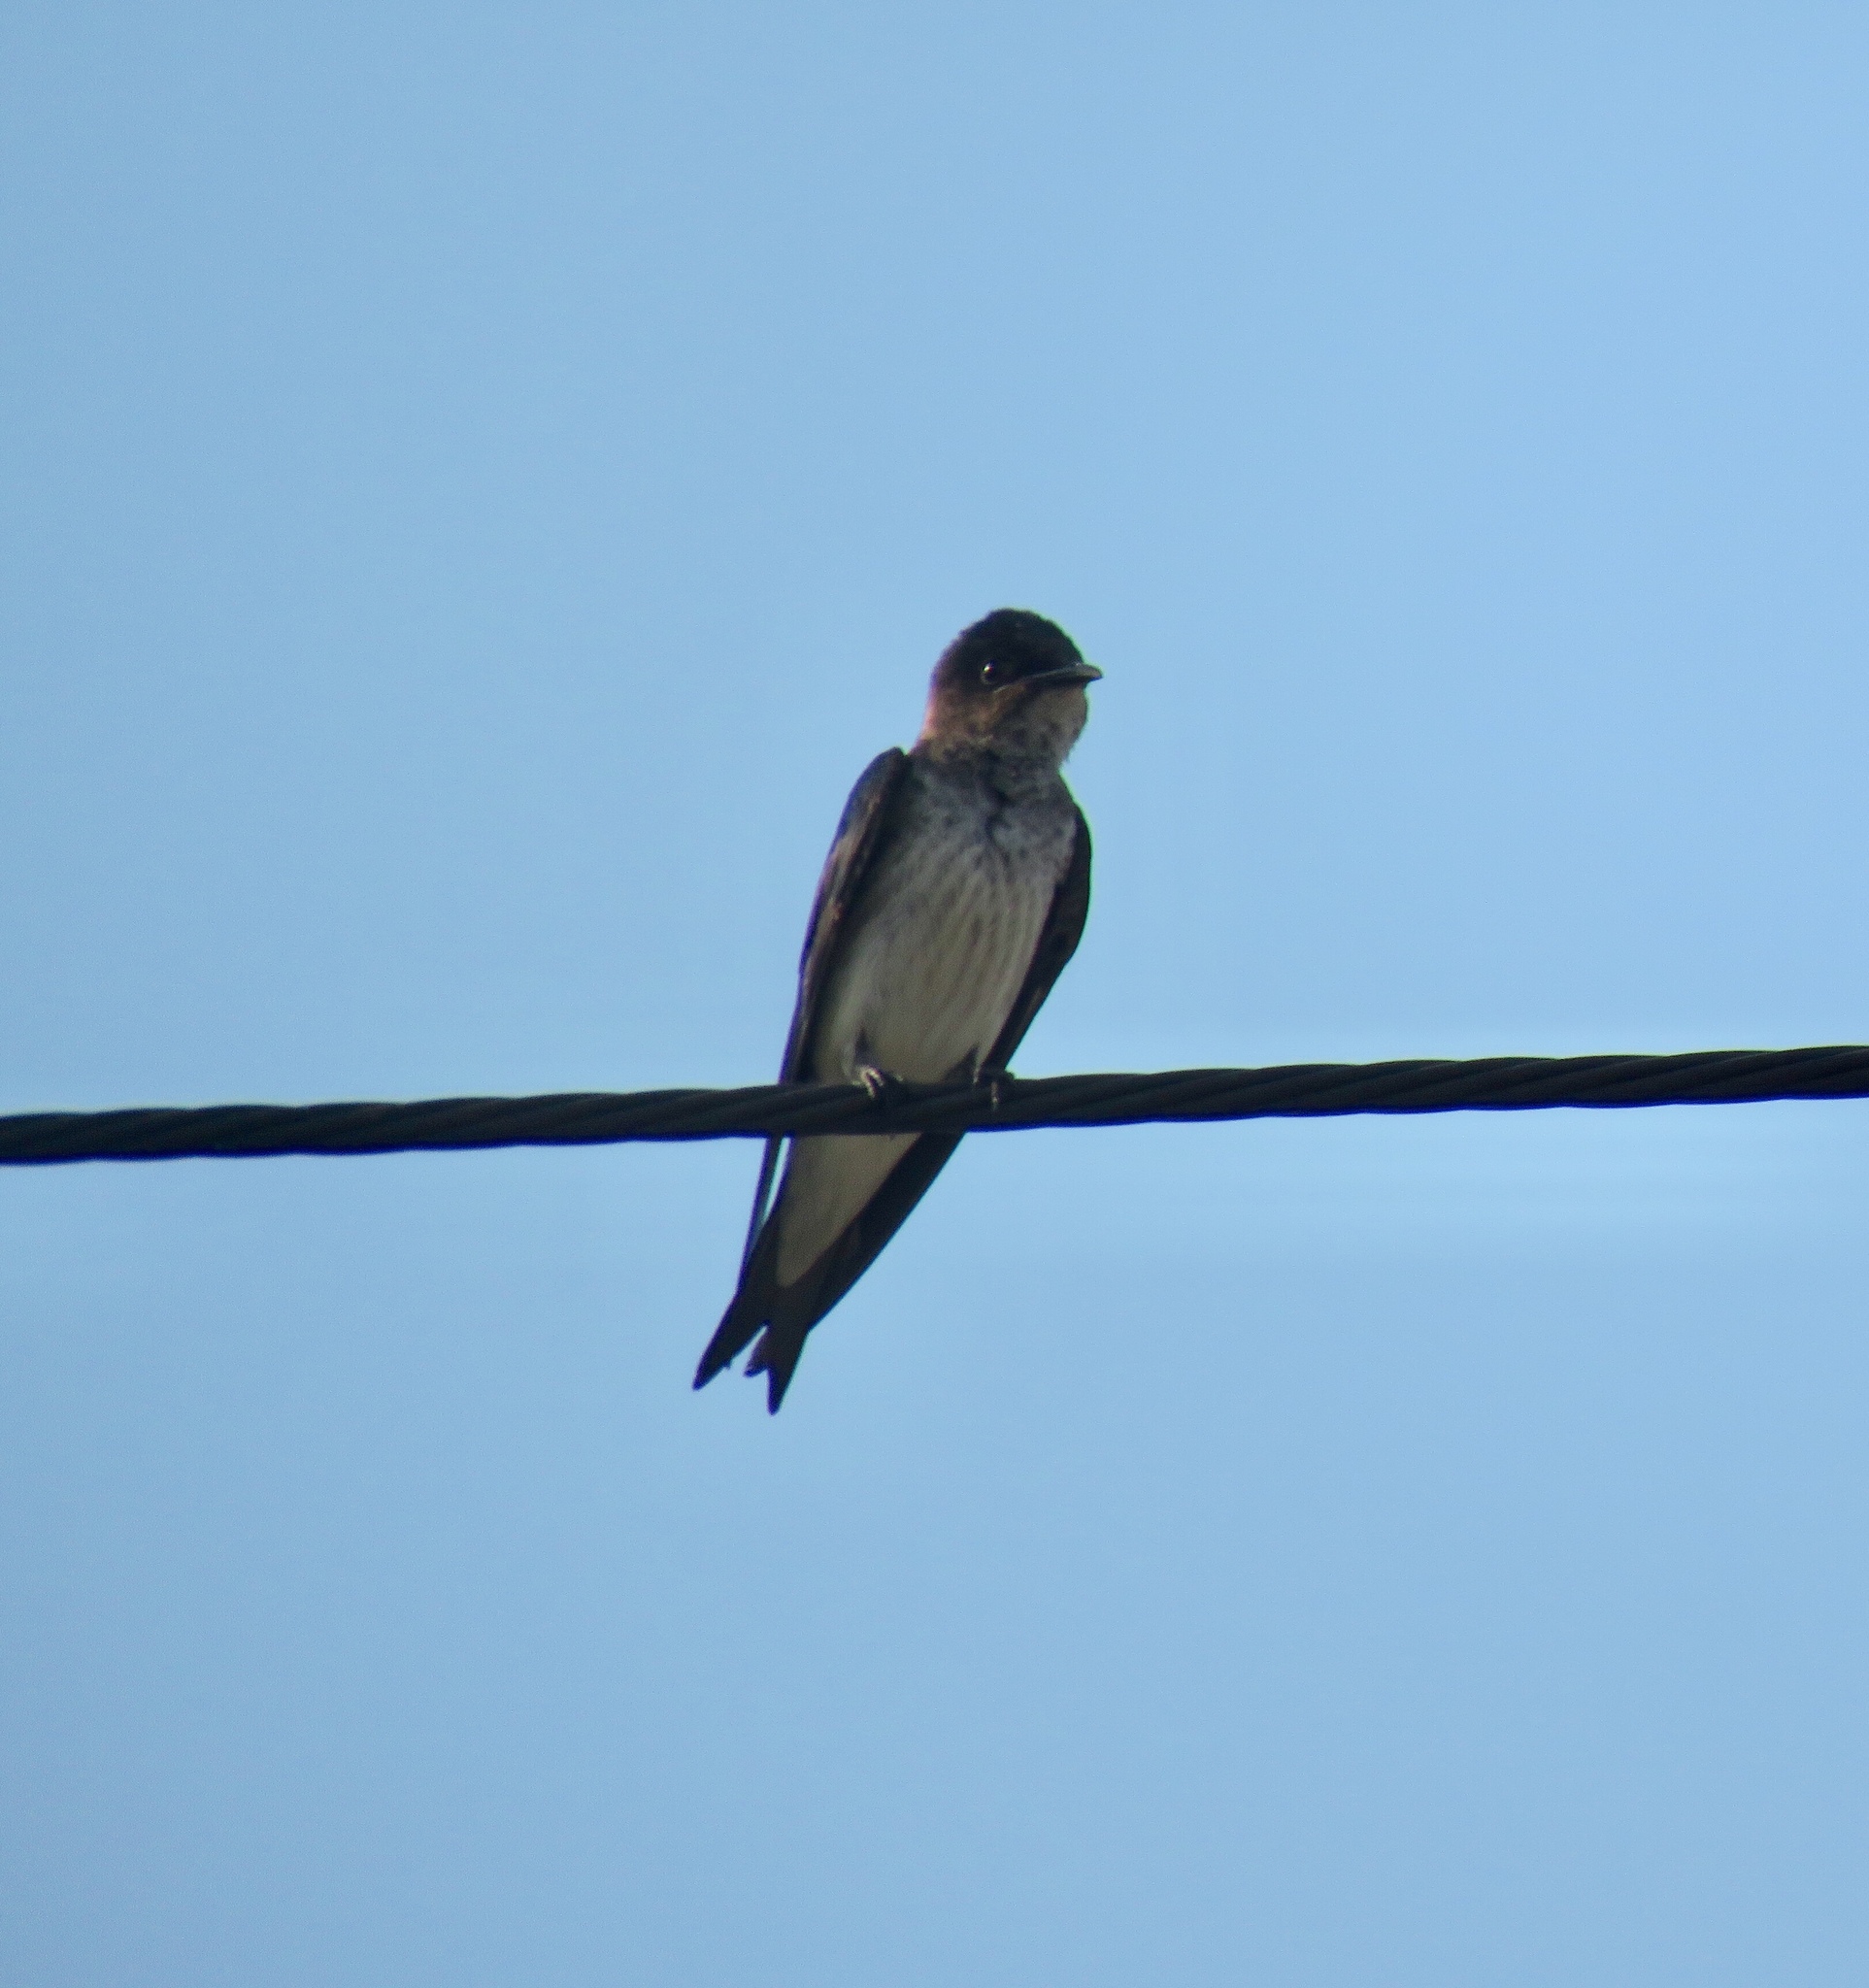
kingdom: Animalia
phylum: Chordata
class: Aves
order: Passeriformes
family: Hirundinidae
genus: Progne
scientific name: Progne chalybea
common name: Grey-breasted martin
